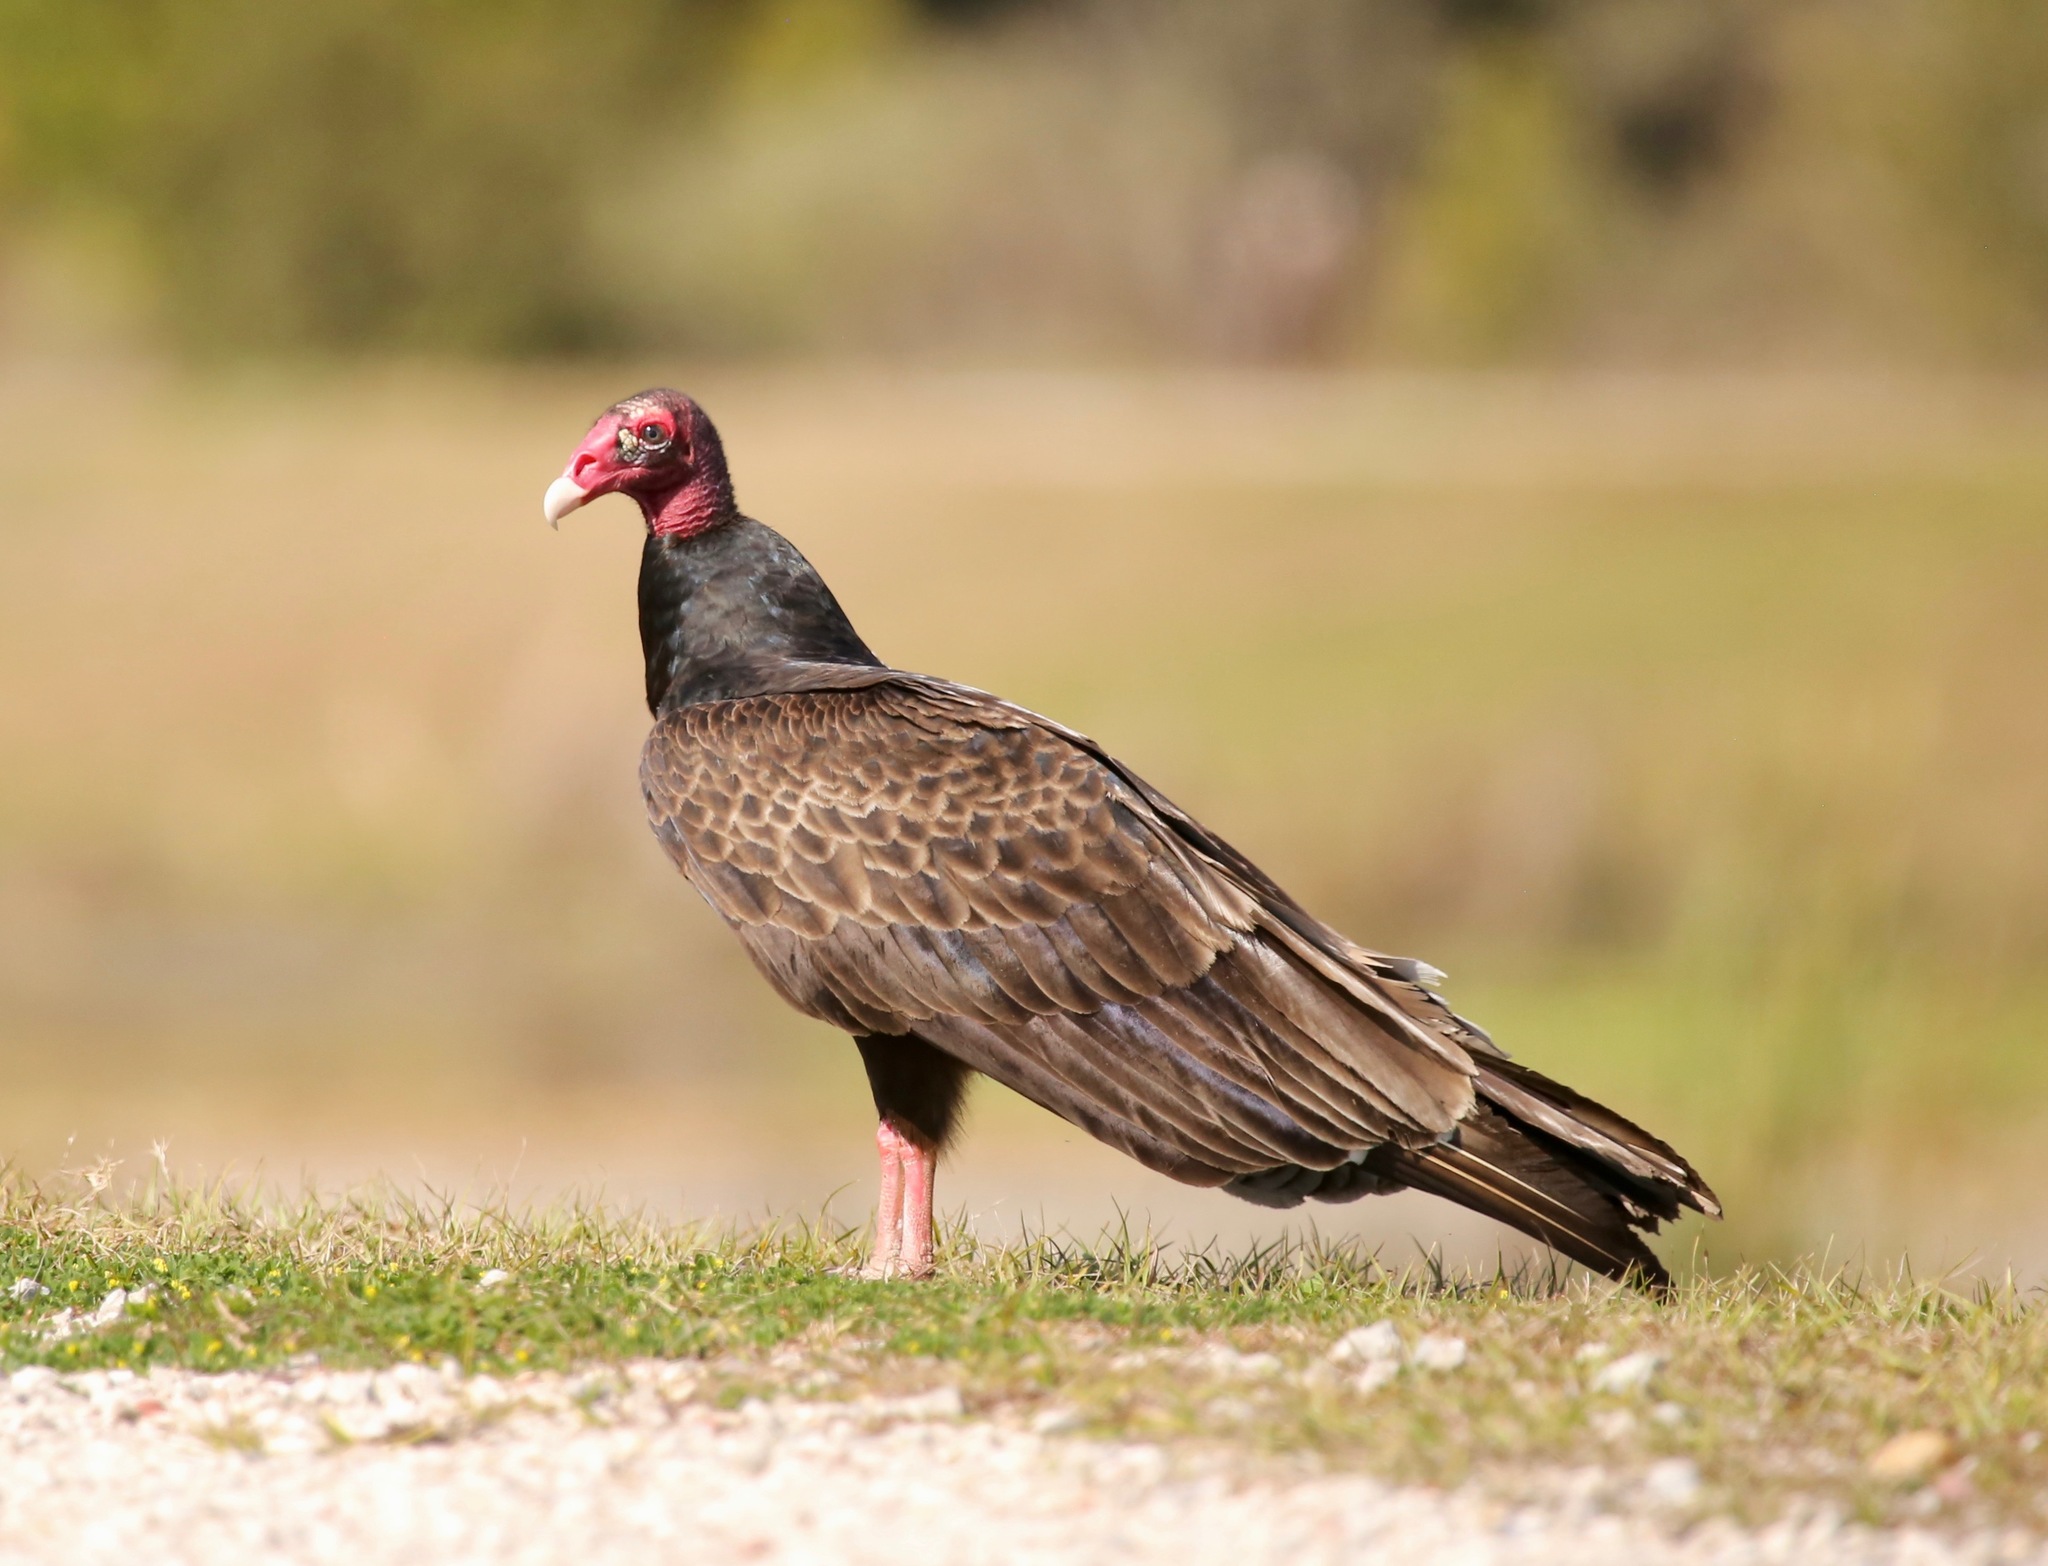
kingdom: Animalia
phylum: Chordata
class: Aves
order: Accipitriformes
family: Cathartidae
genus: Cathartes
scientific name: Cathartes aura
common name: Turkey vulture
